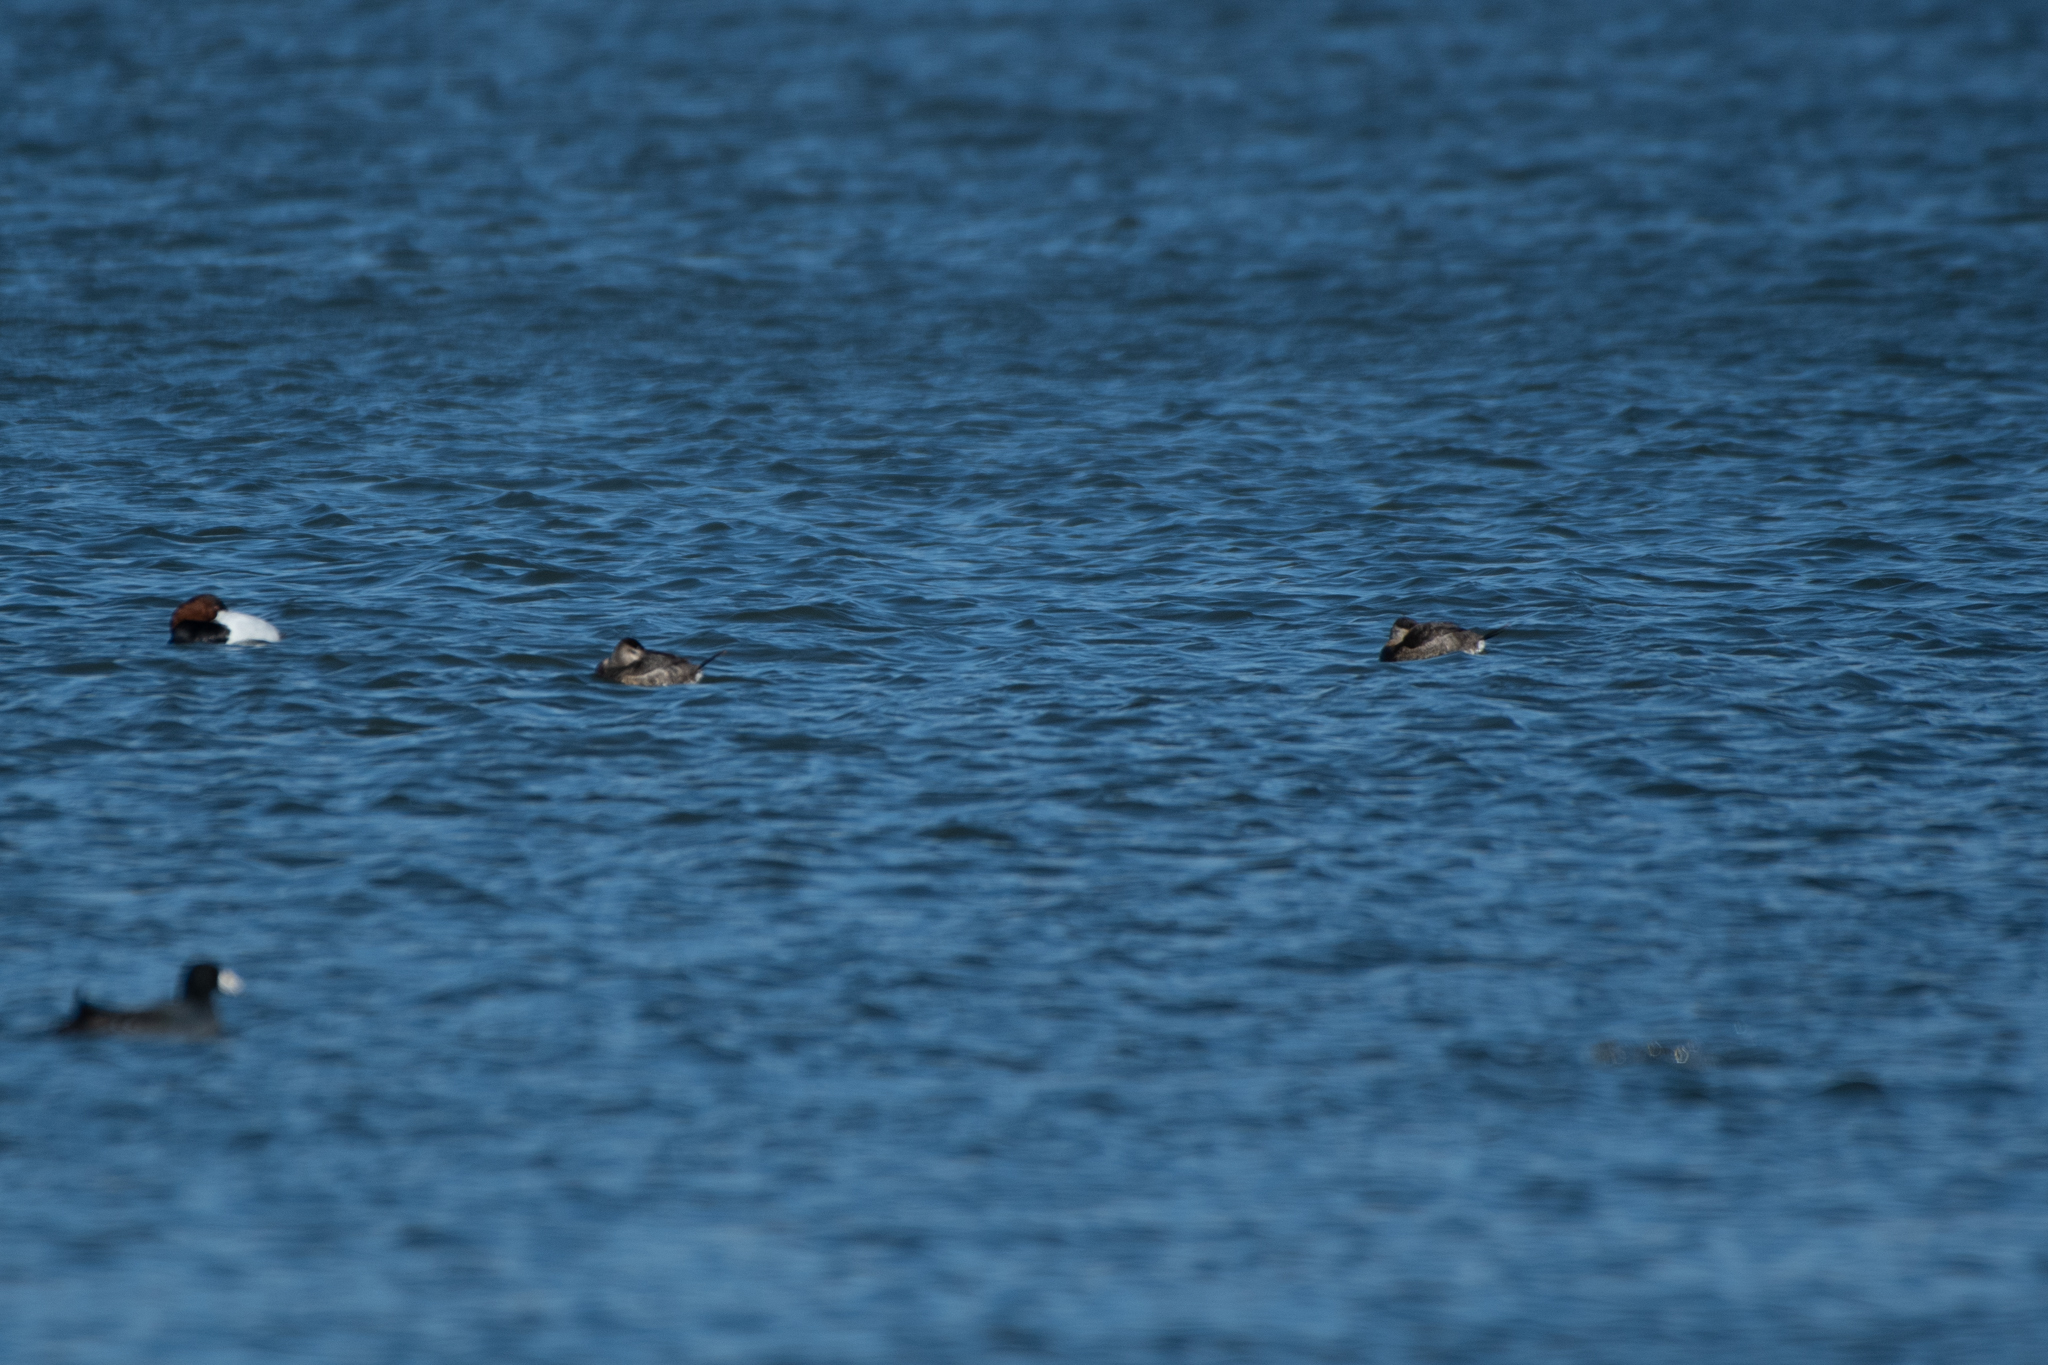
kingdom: Animalia
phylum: Chordata
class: Aves
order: Anseriformes
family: Anatidae
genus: Oxyura
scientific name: Oxyura jamaicensis
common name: Ruddy duck
